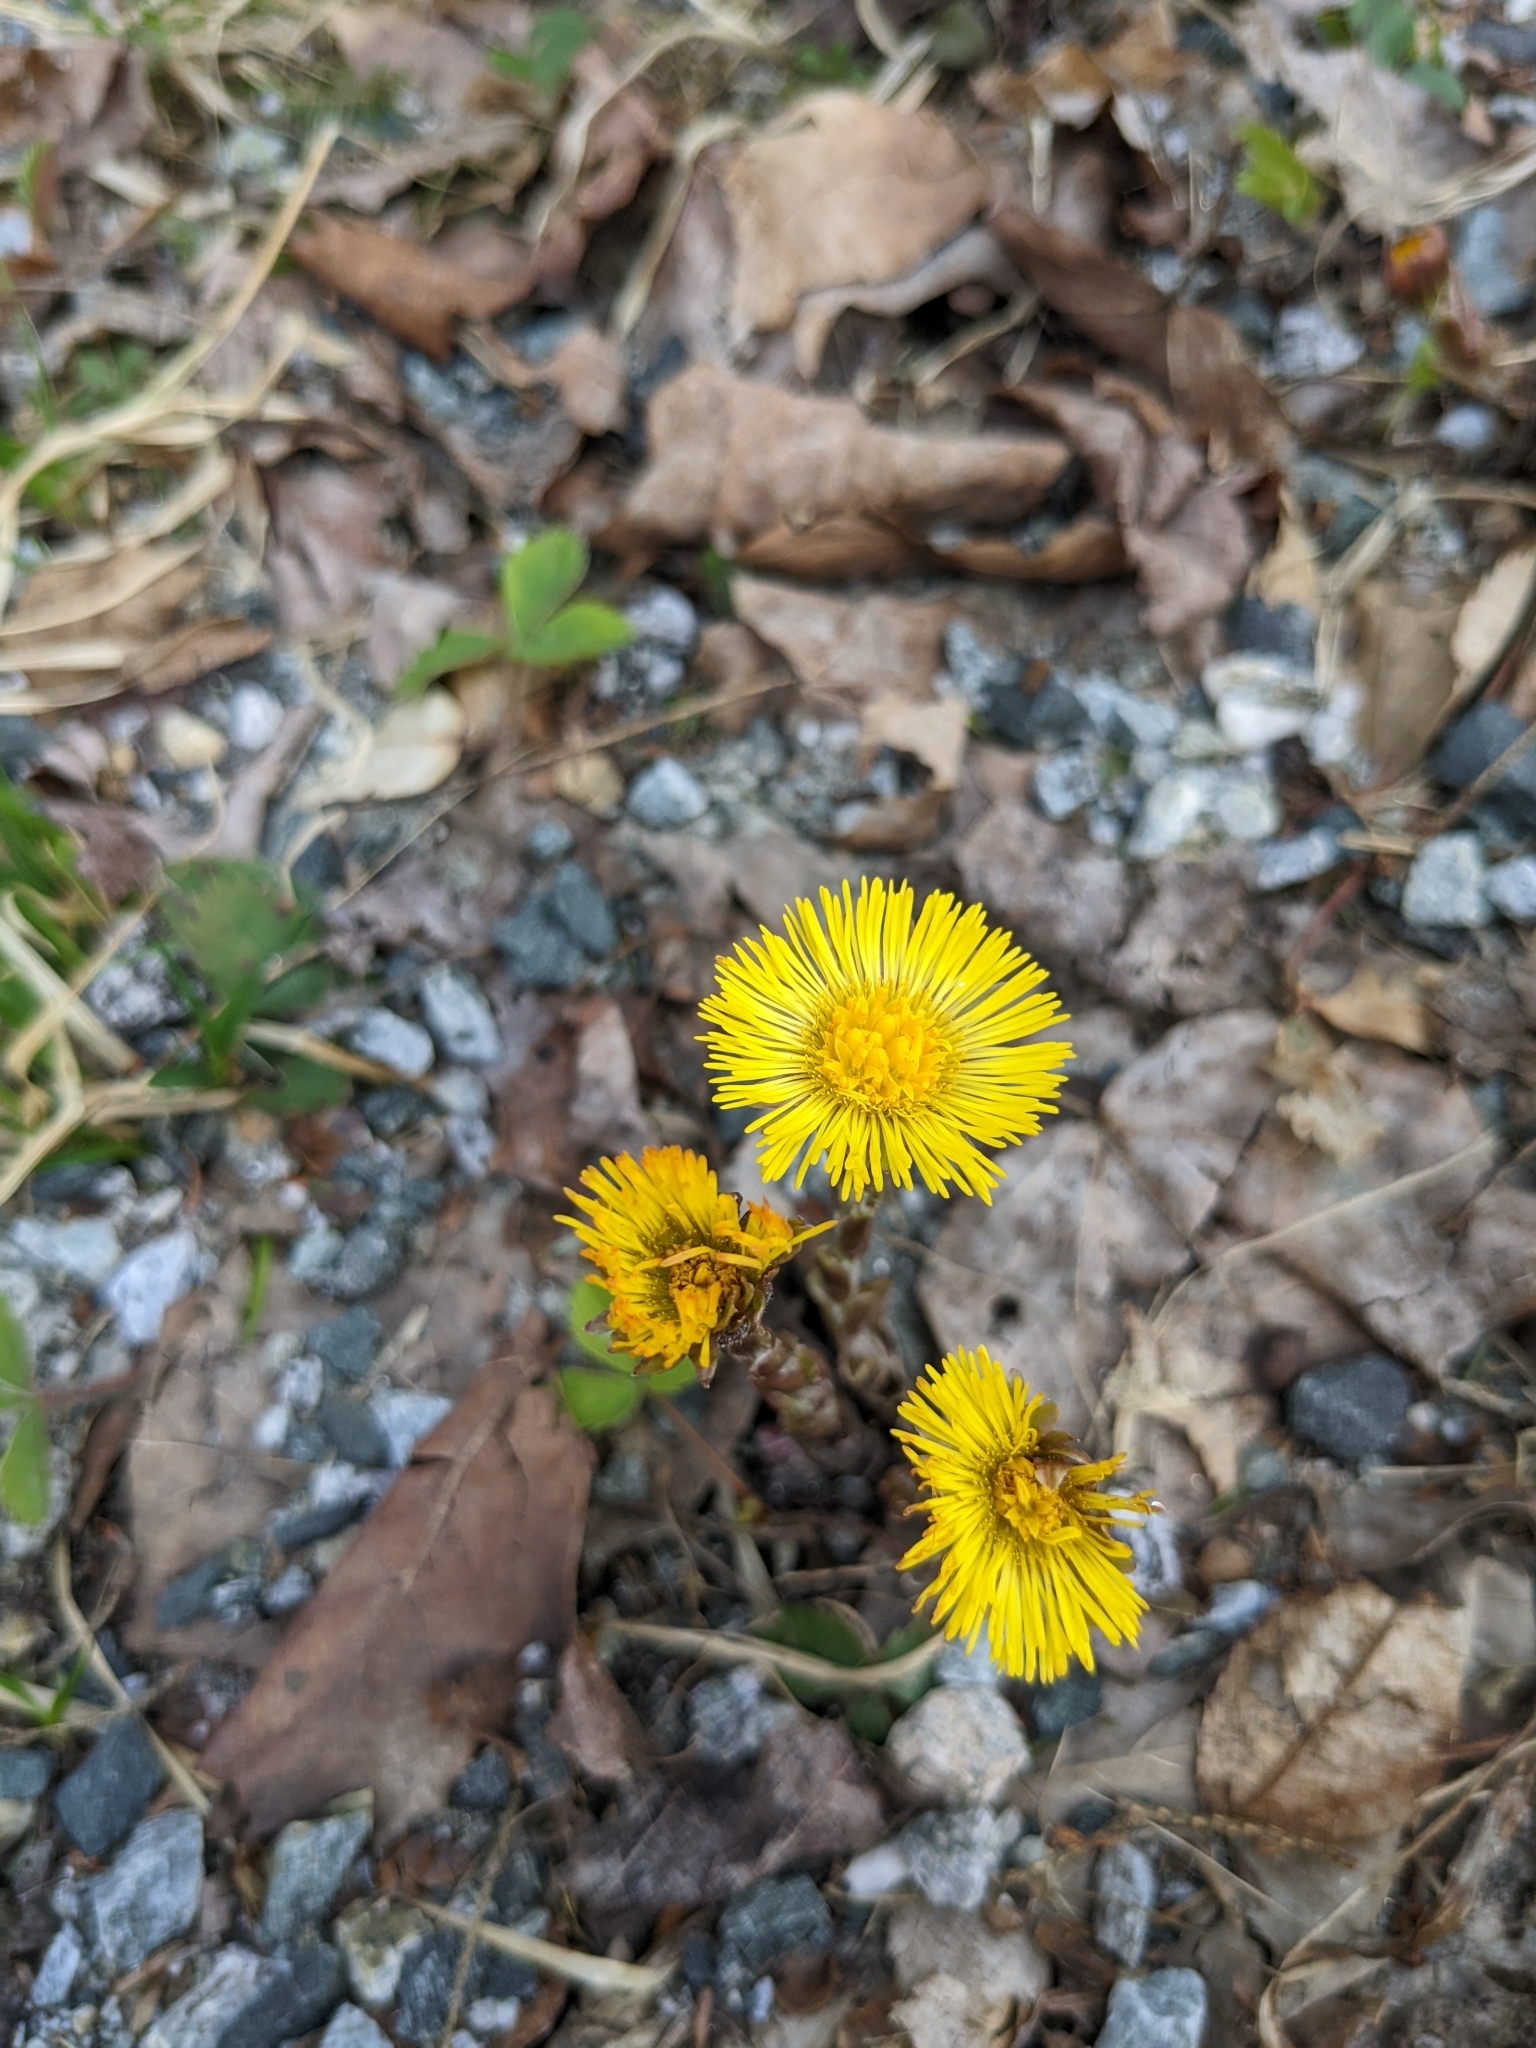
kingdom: Plantae
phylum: Tracheophyta
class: Magnoliopsida
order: Asterales
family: Asteraceae
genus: Tussilago
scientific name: Tussilago farfara
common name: Coltsfoot
